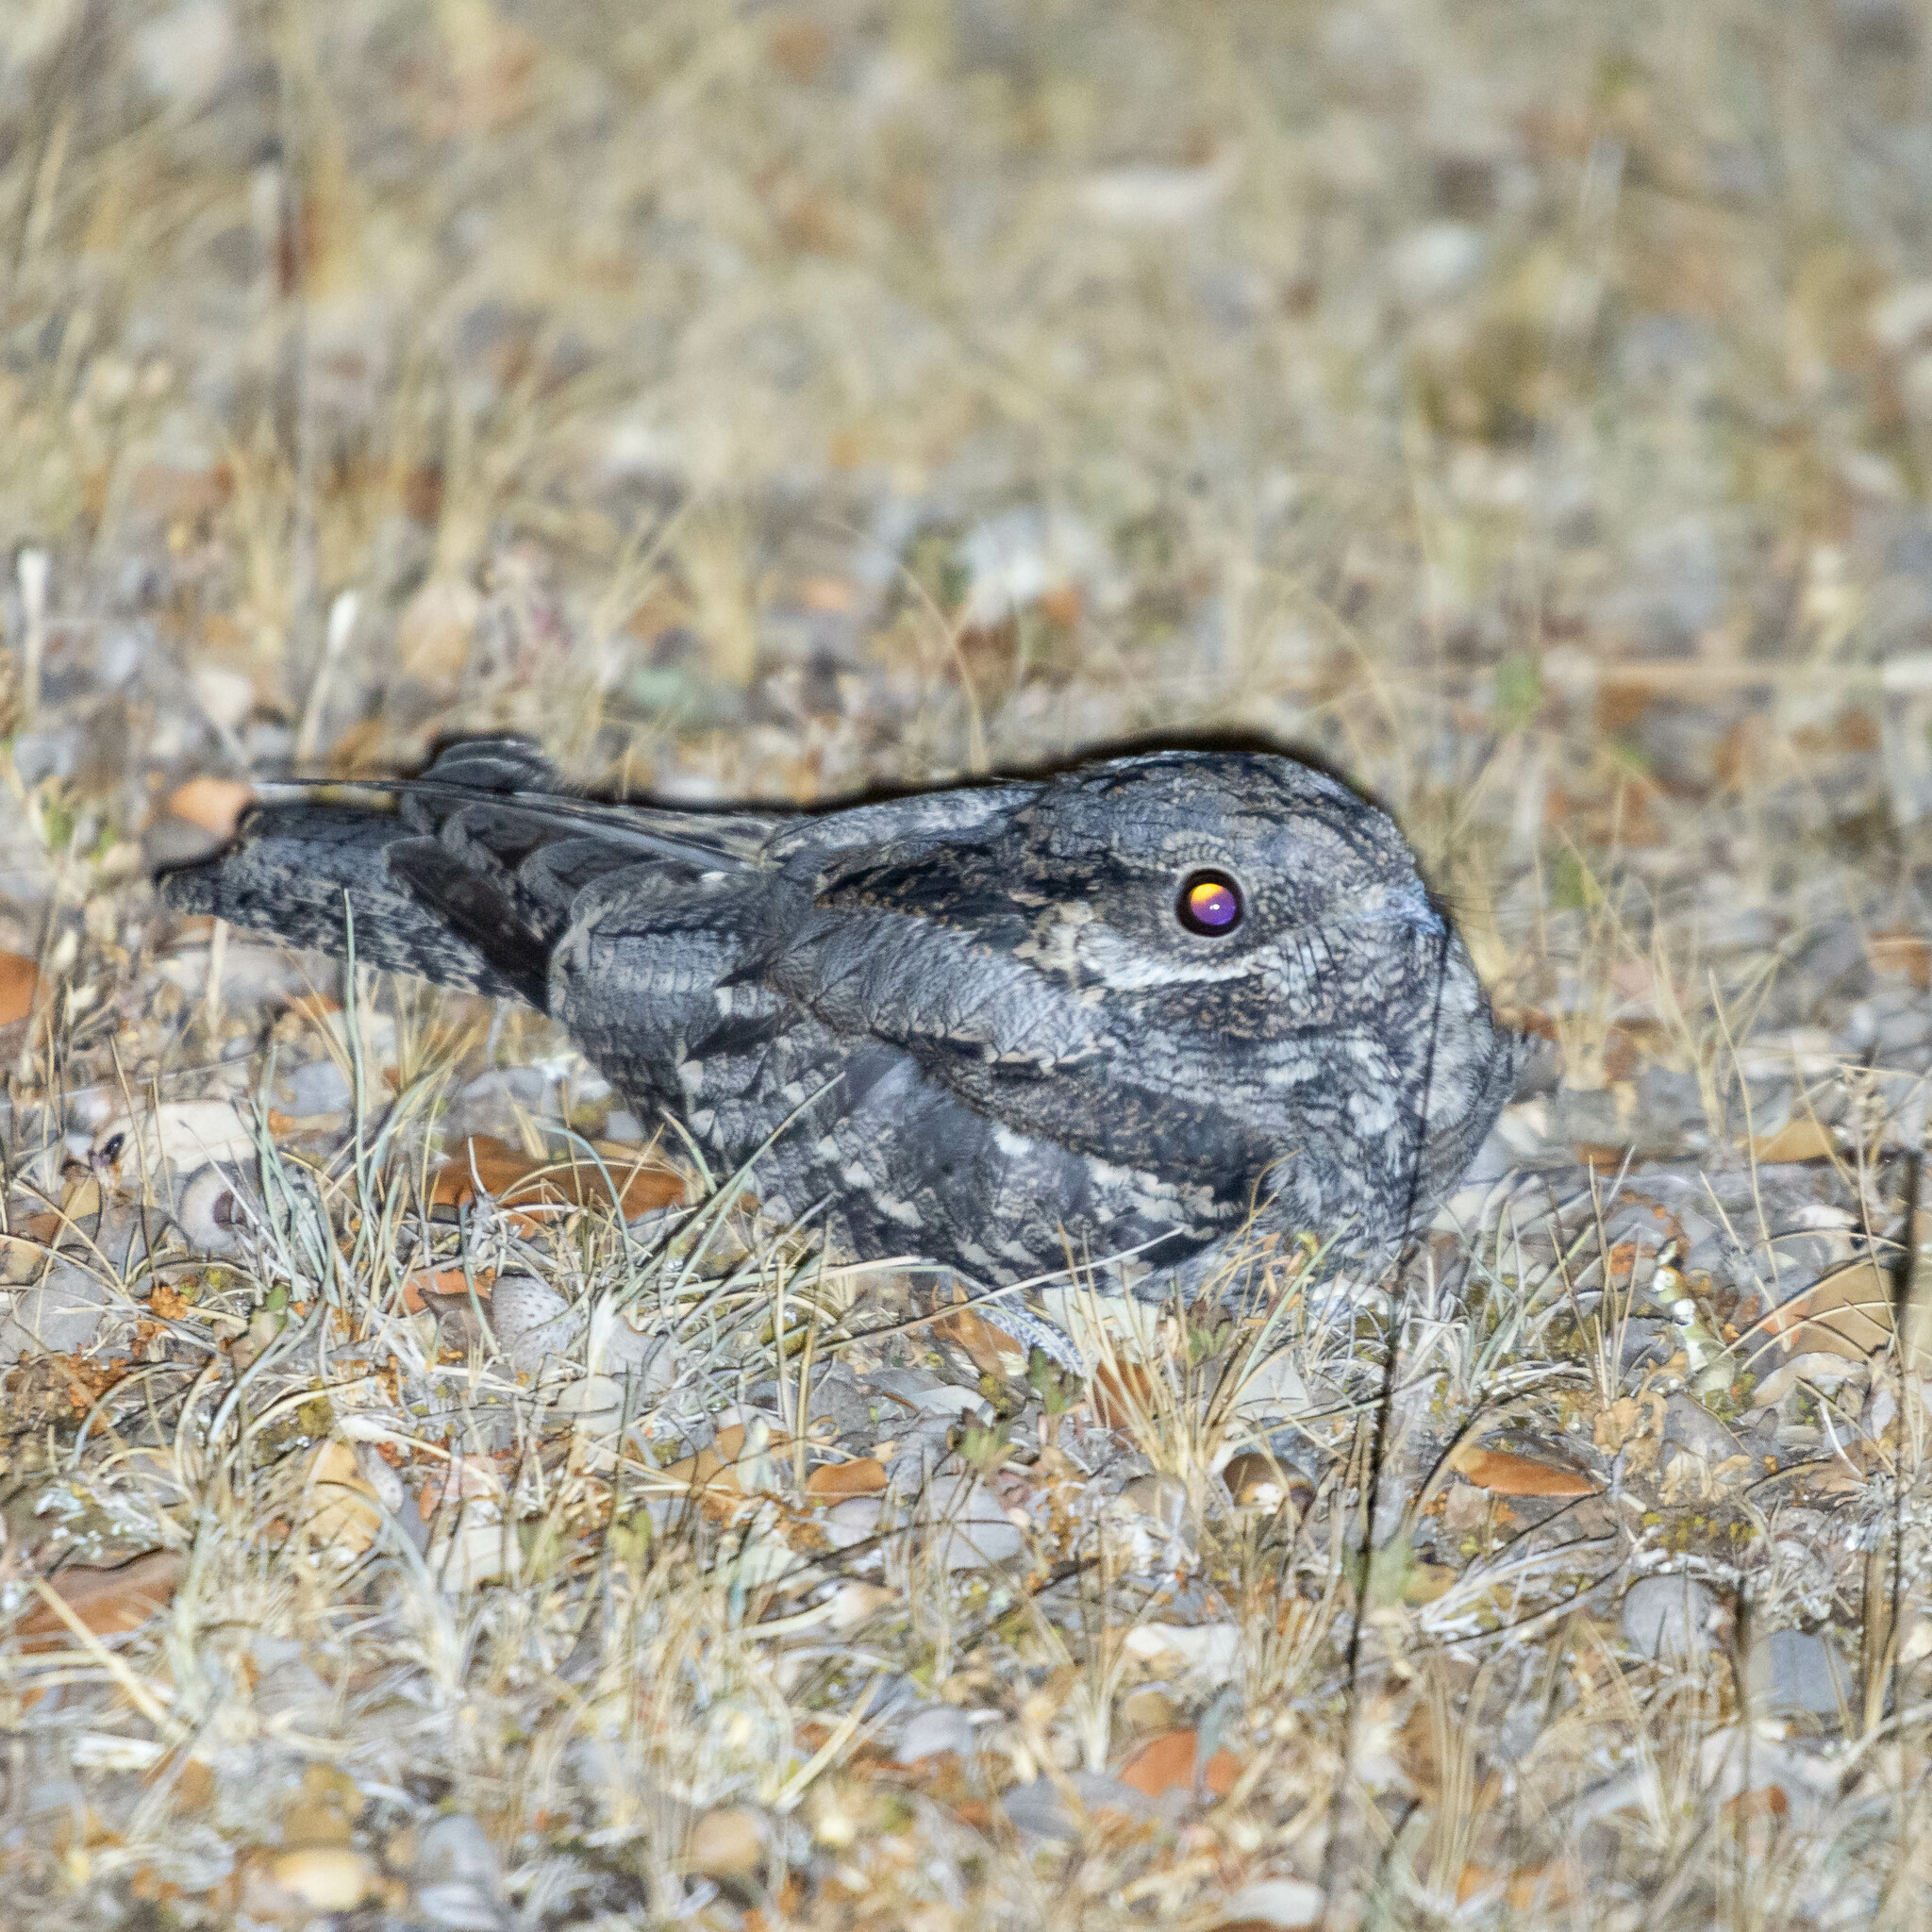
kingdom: Animalia
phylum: Chordata
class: Aves
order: Caprimulgiformes
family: Caprimulgidae
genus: Caprimulgus
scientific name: Caprimulgus europaeus
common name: European nightjar
